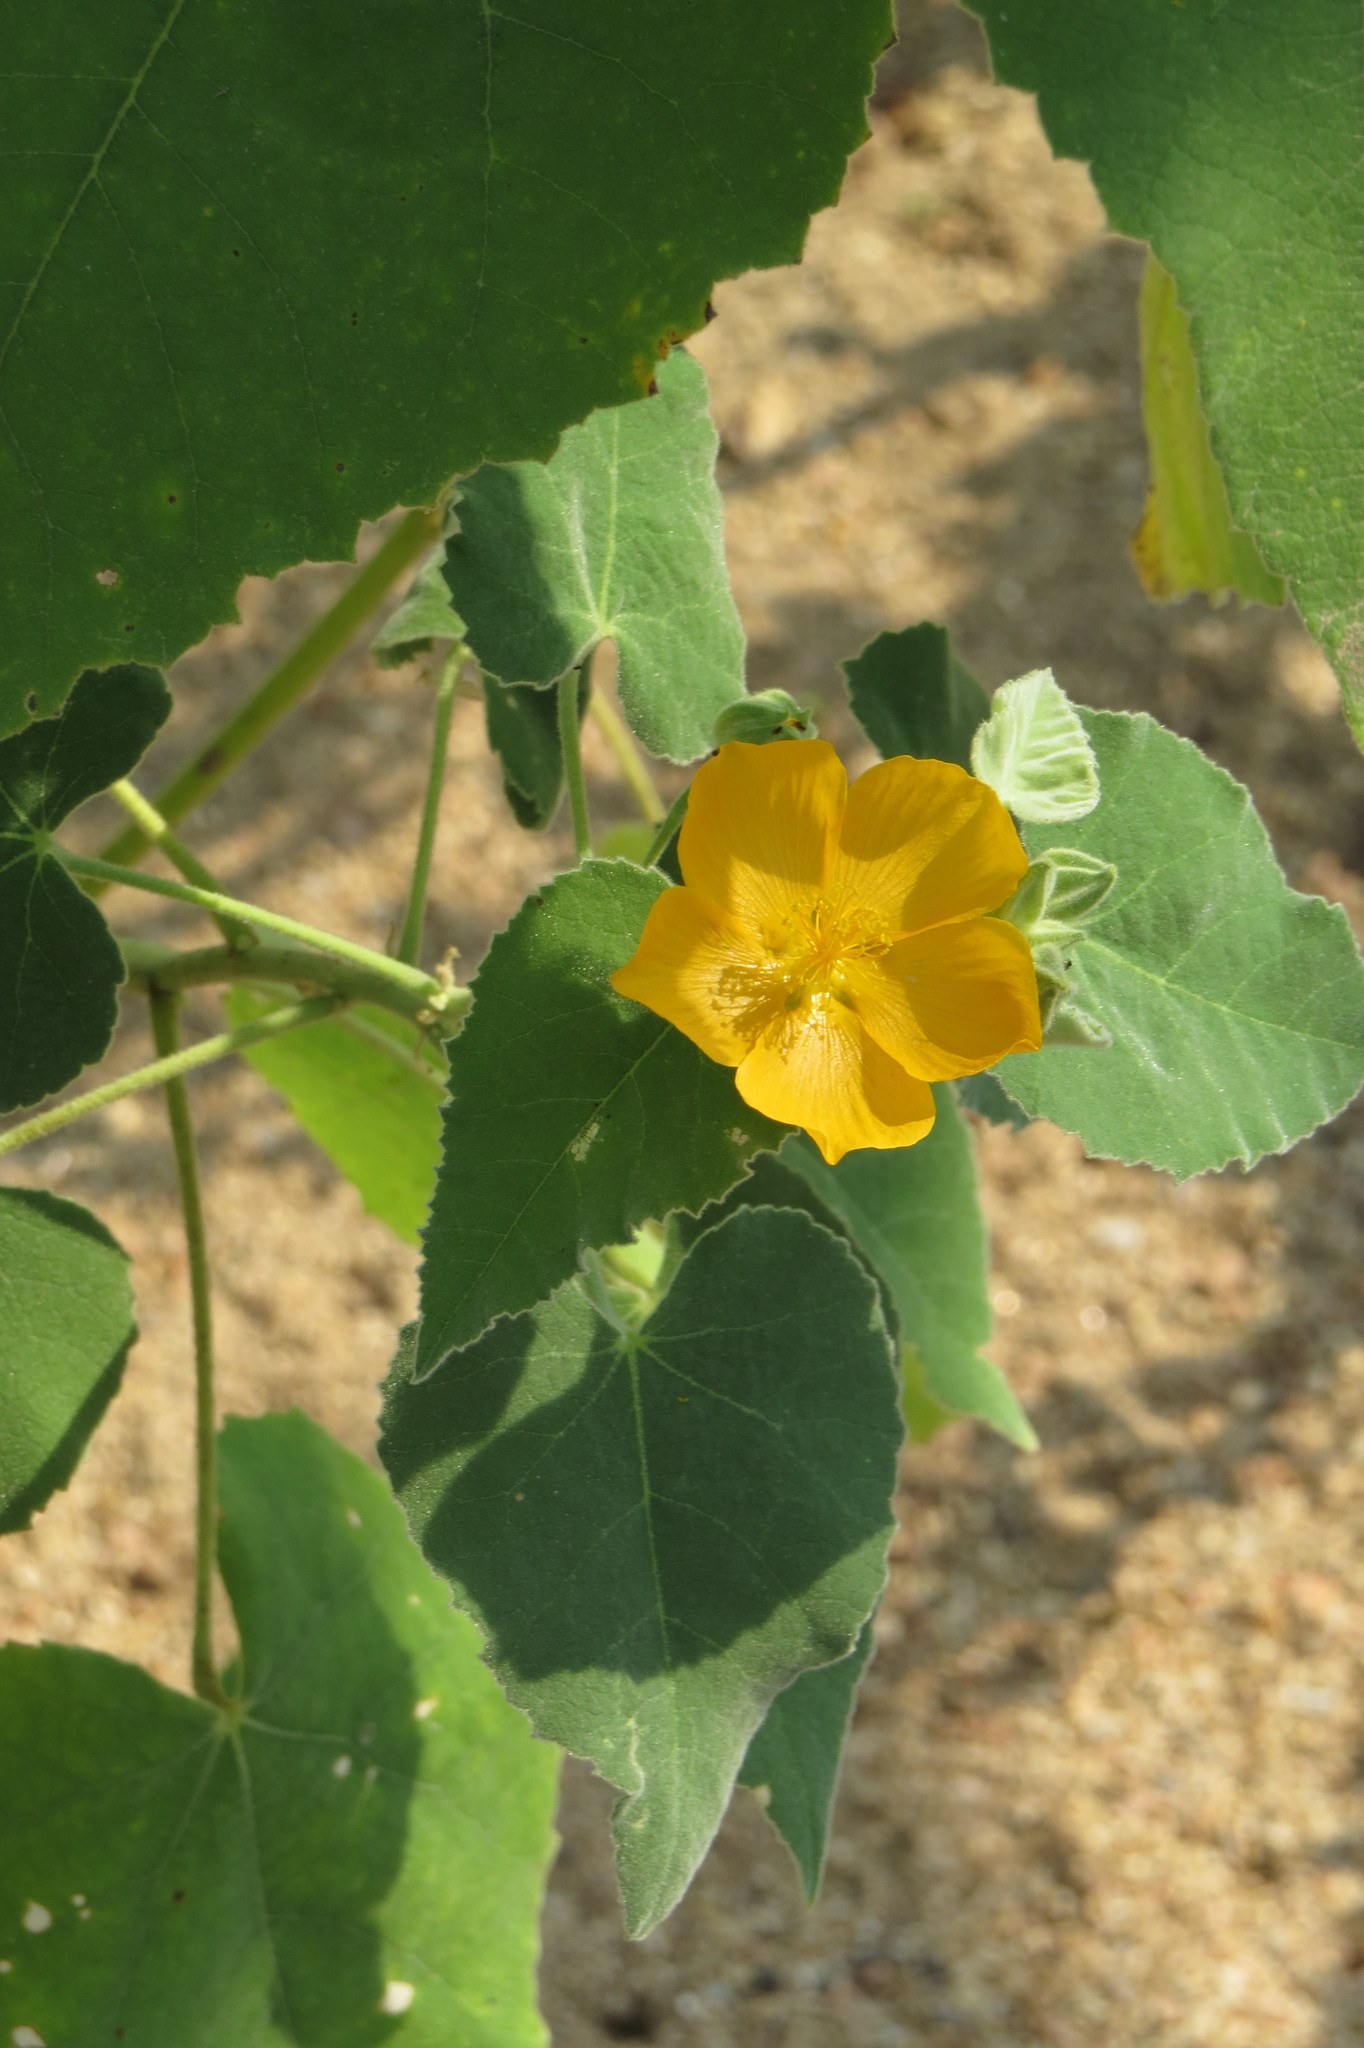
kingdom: Plantae
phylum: Tracheophyta
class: Magnoliopsida
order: Malvales
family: Malvaceae
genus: Allowissadula
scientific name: Allowissadula holosericea
